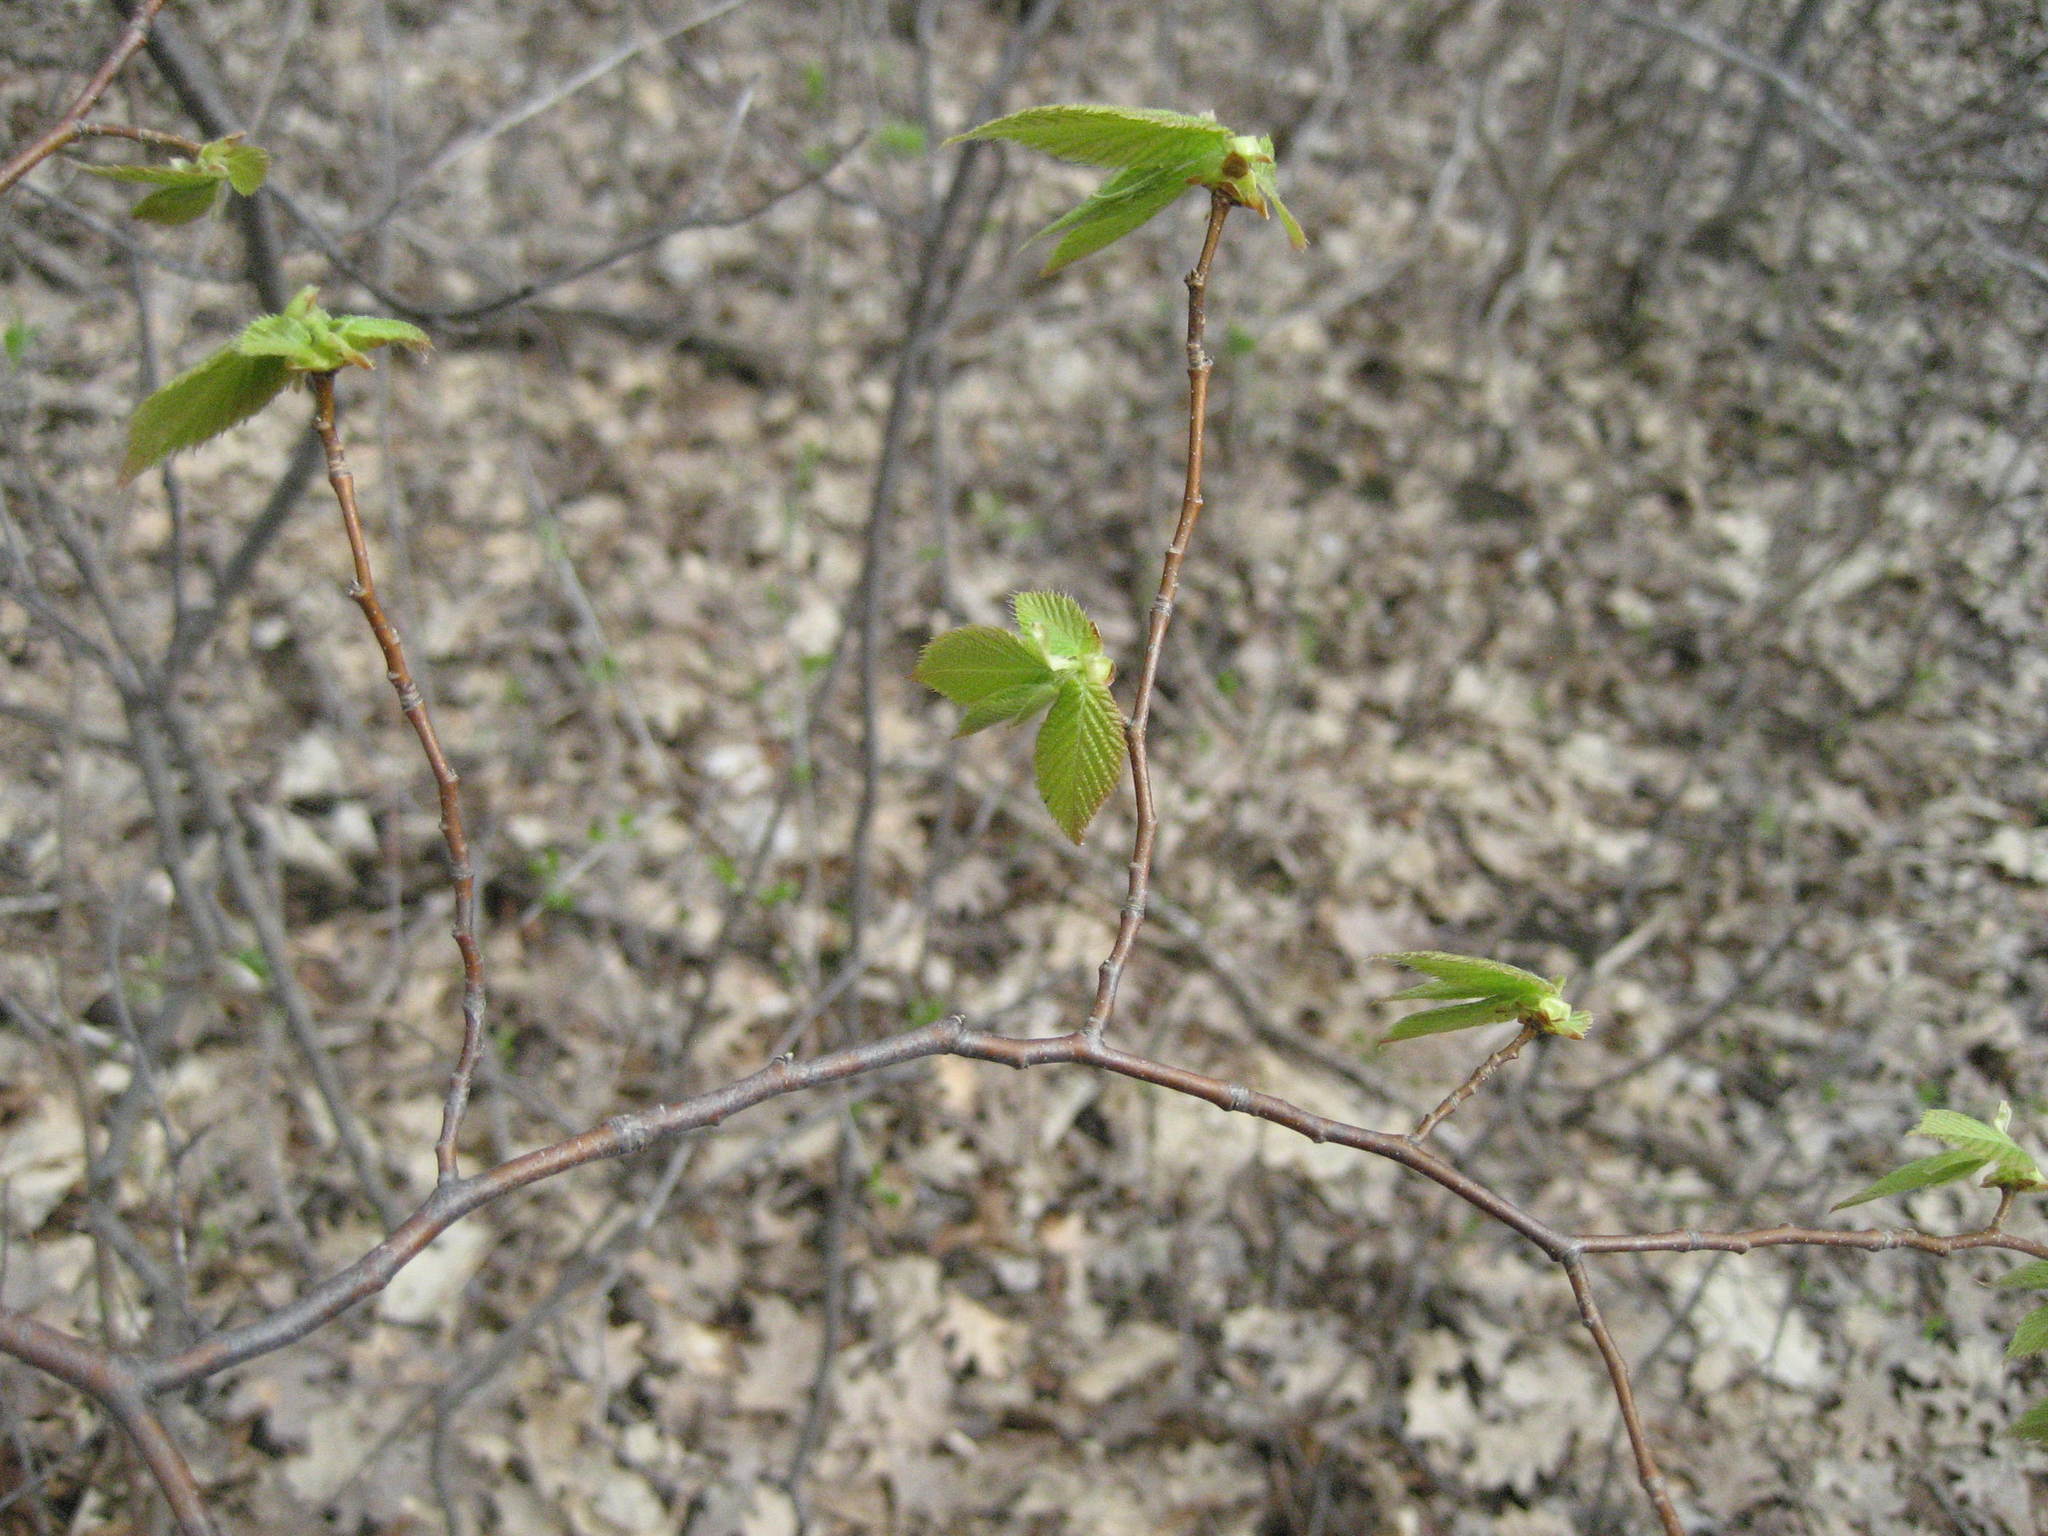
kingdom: Plantae
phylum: Tracheophyta
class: Magnoliopsida
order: Fagales
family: Betulaceae
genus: Ostrya
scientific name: Ostrya virginiana
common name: Ironwood
